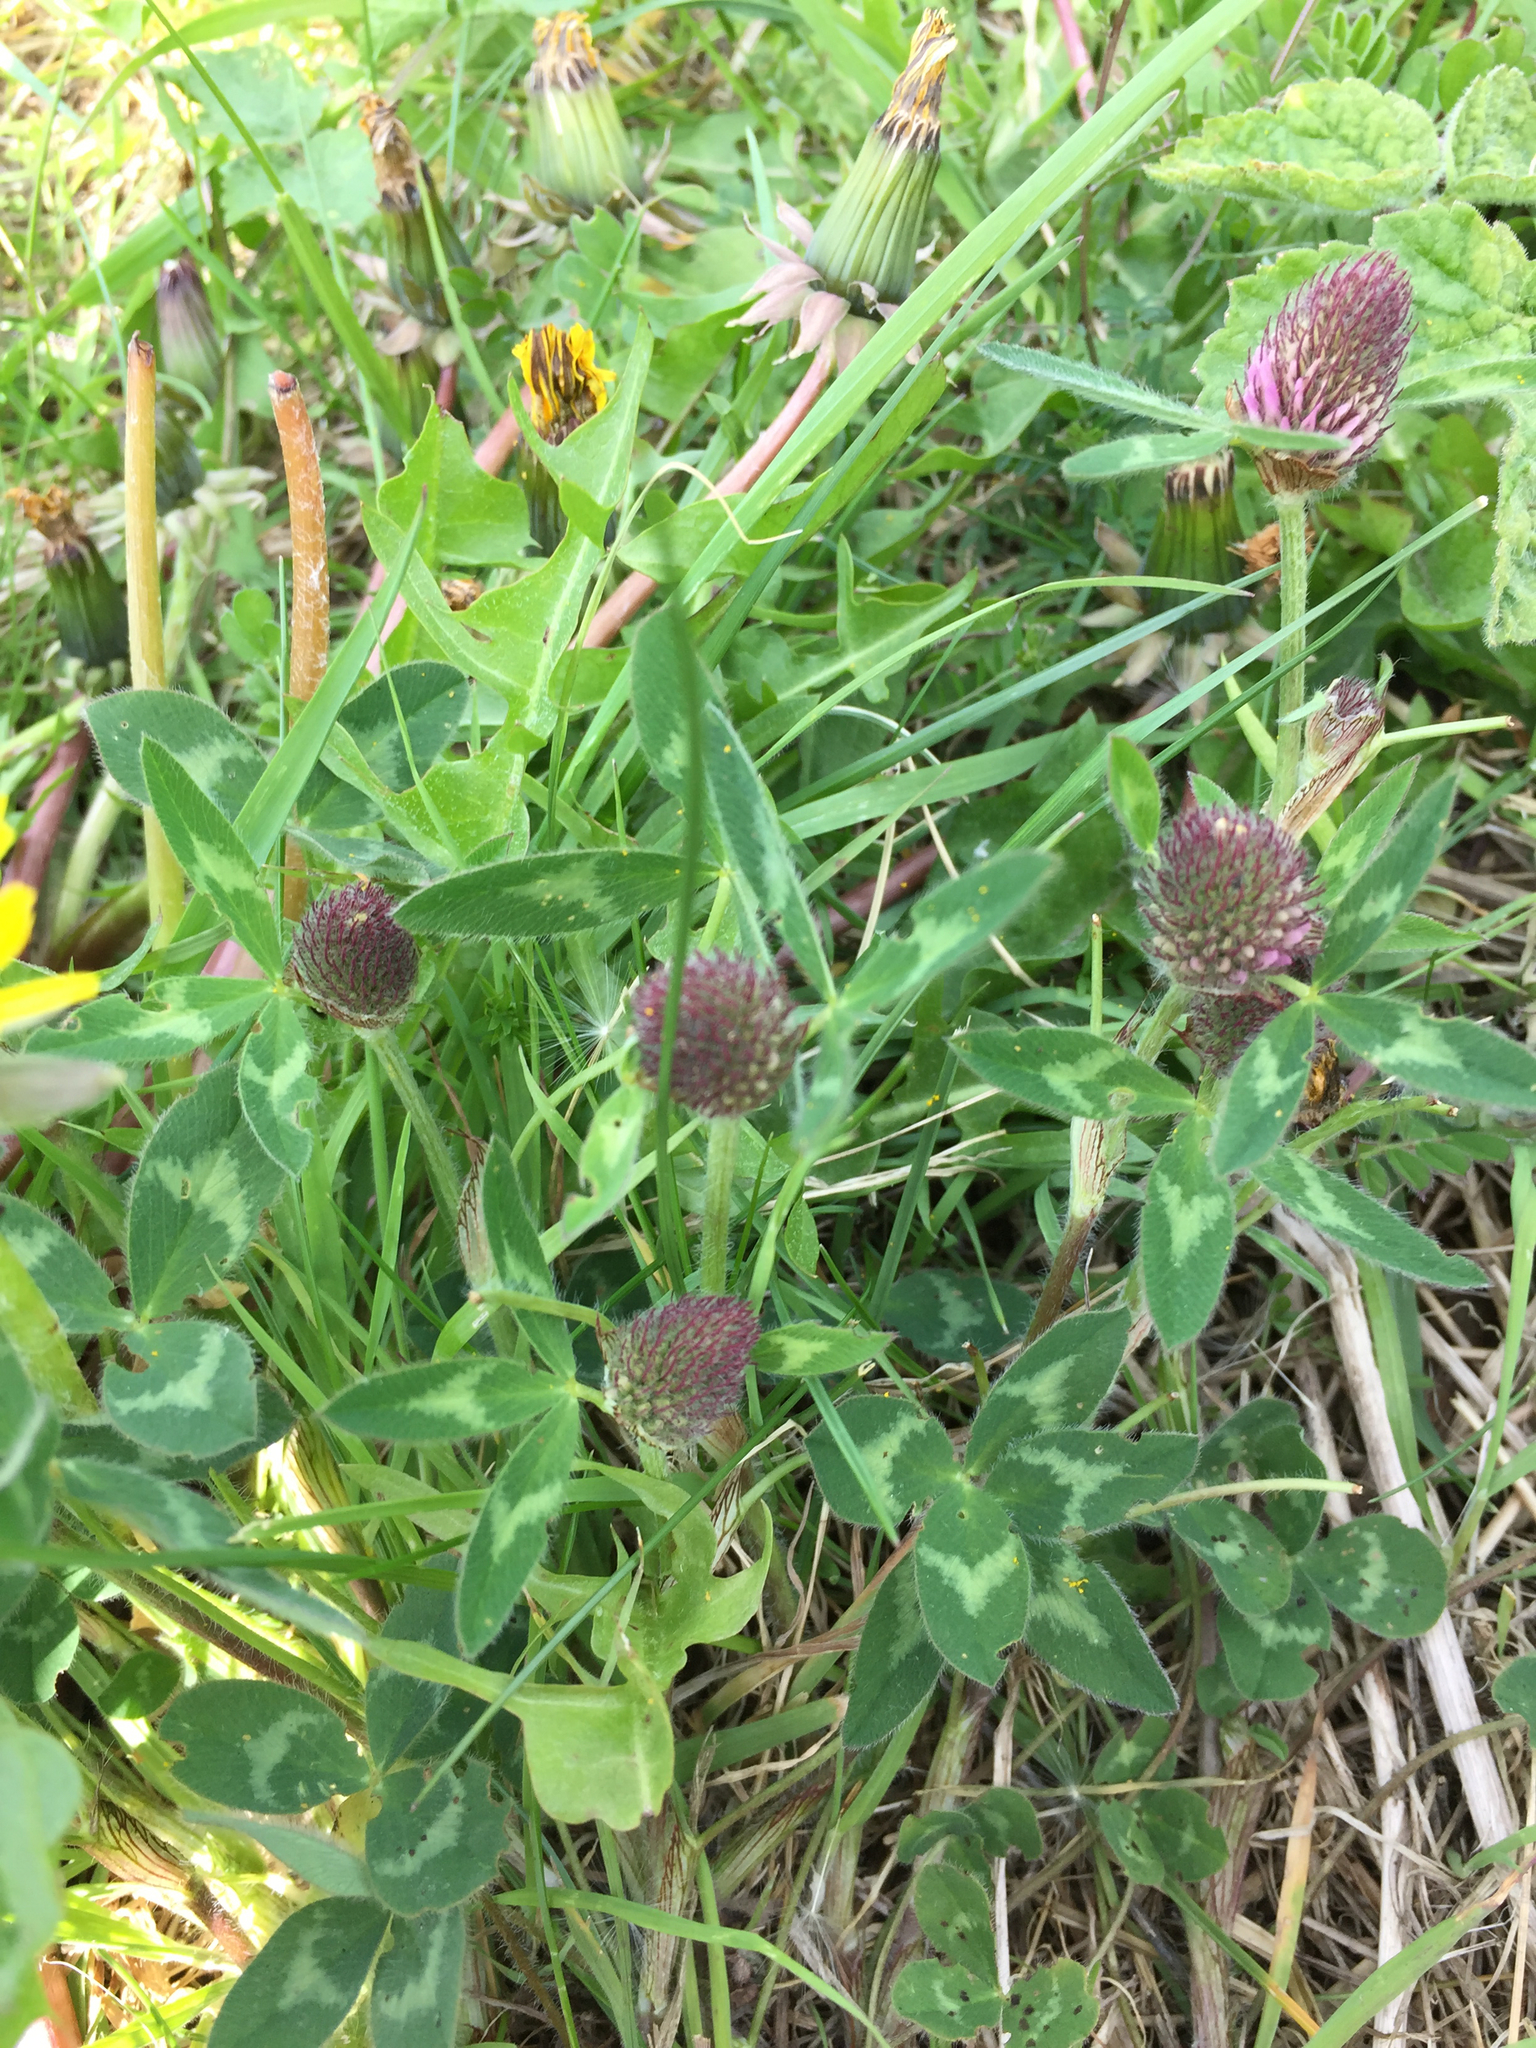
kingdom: Plantae
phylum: Tracheophyta
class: Magnoliopsida
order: Fabales
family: Fabaceae
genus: Trifolium
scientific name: Trifolium pratense
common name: Red clover
